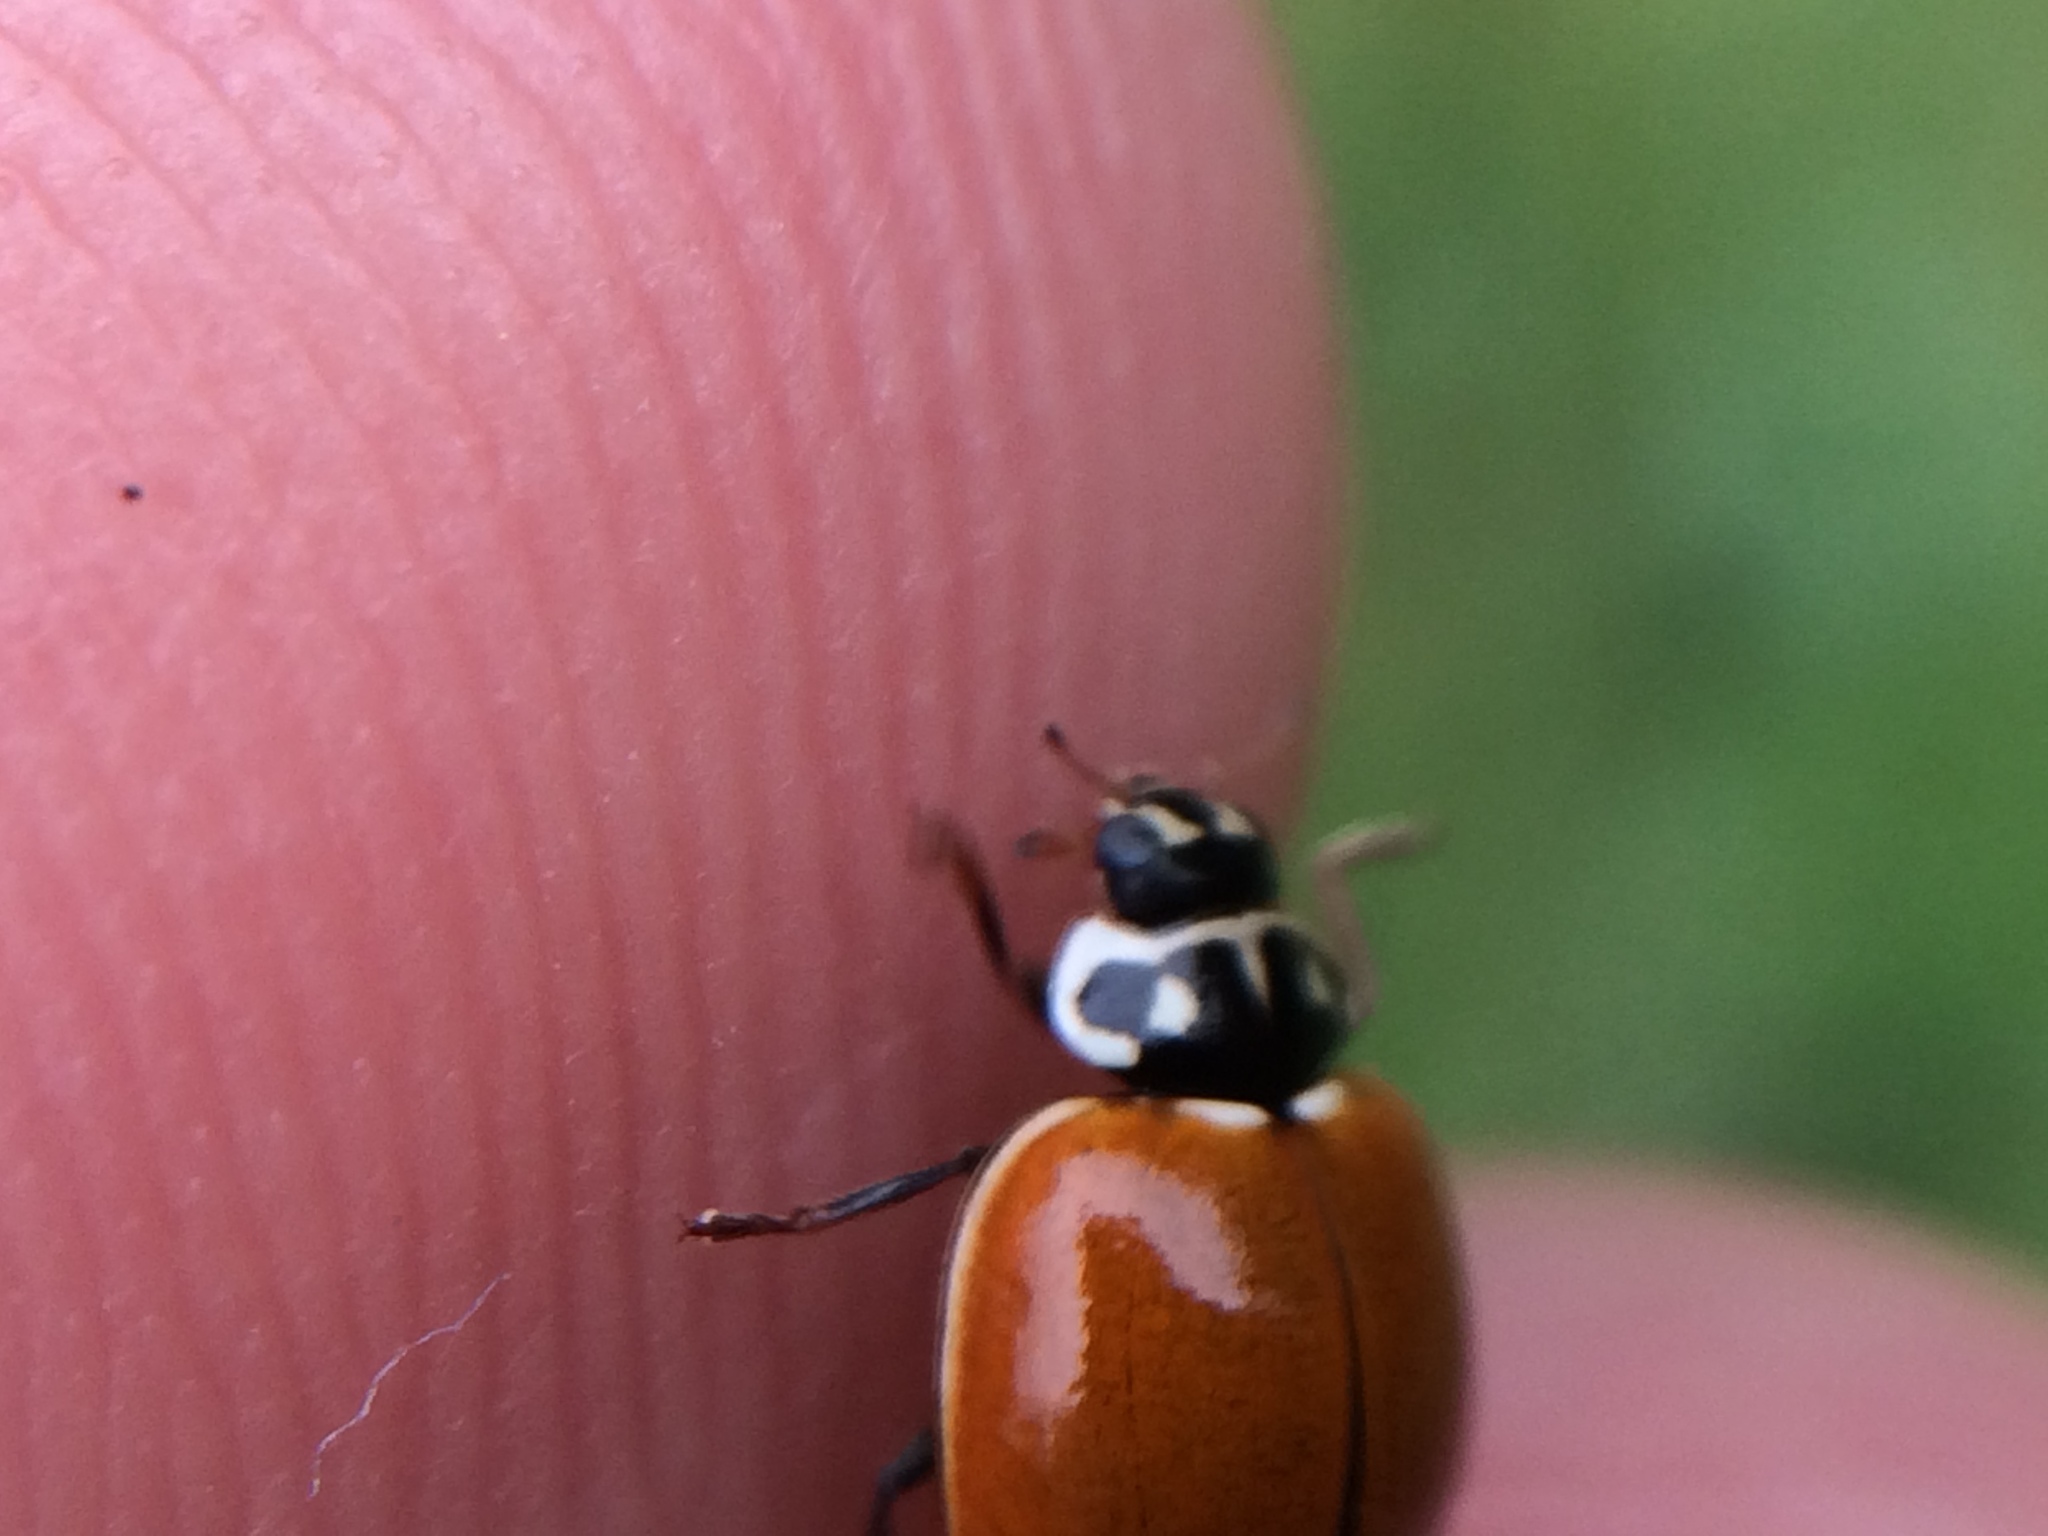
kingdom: Animalia
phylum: Arthropoda
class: Insecta
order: Coleoptera
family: Coccinellidae
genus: Cycloneda
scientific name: Cycloneda sanguinea
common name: Ladybird beetle
